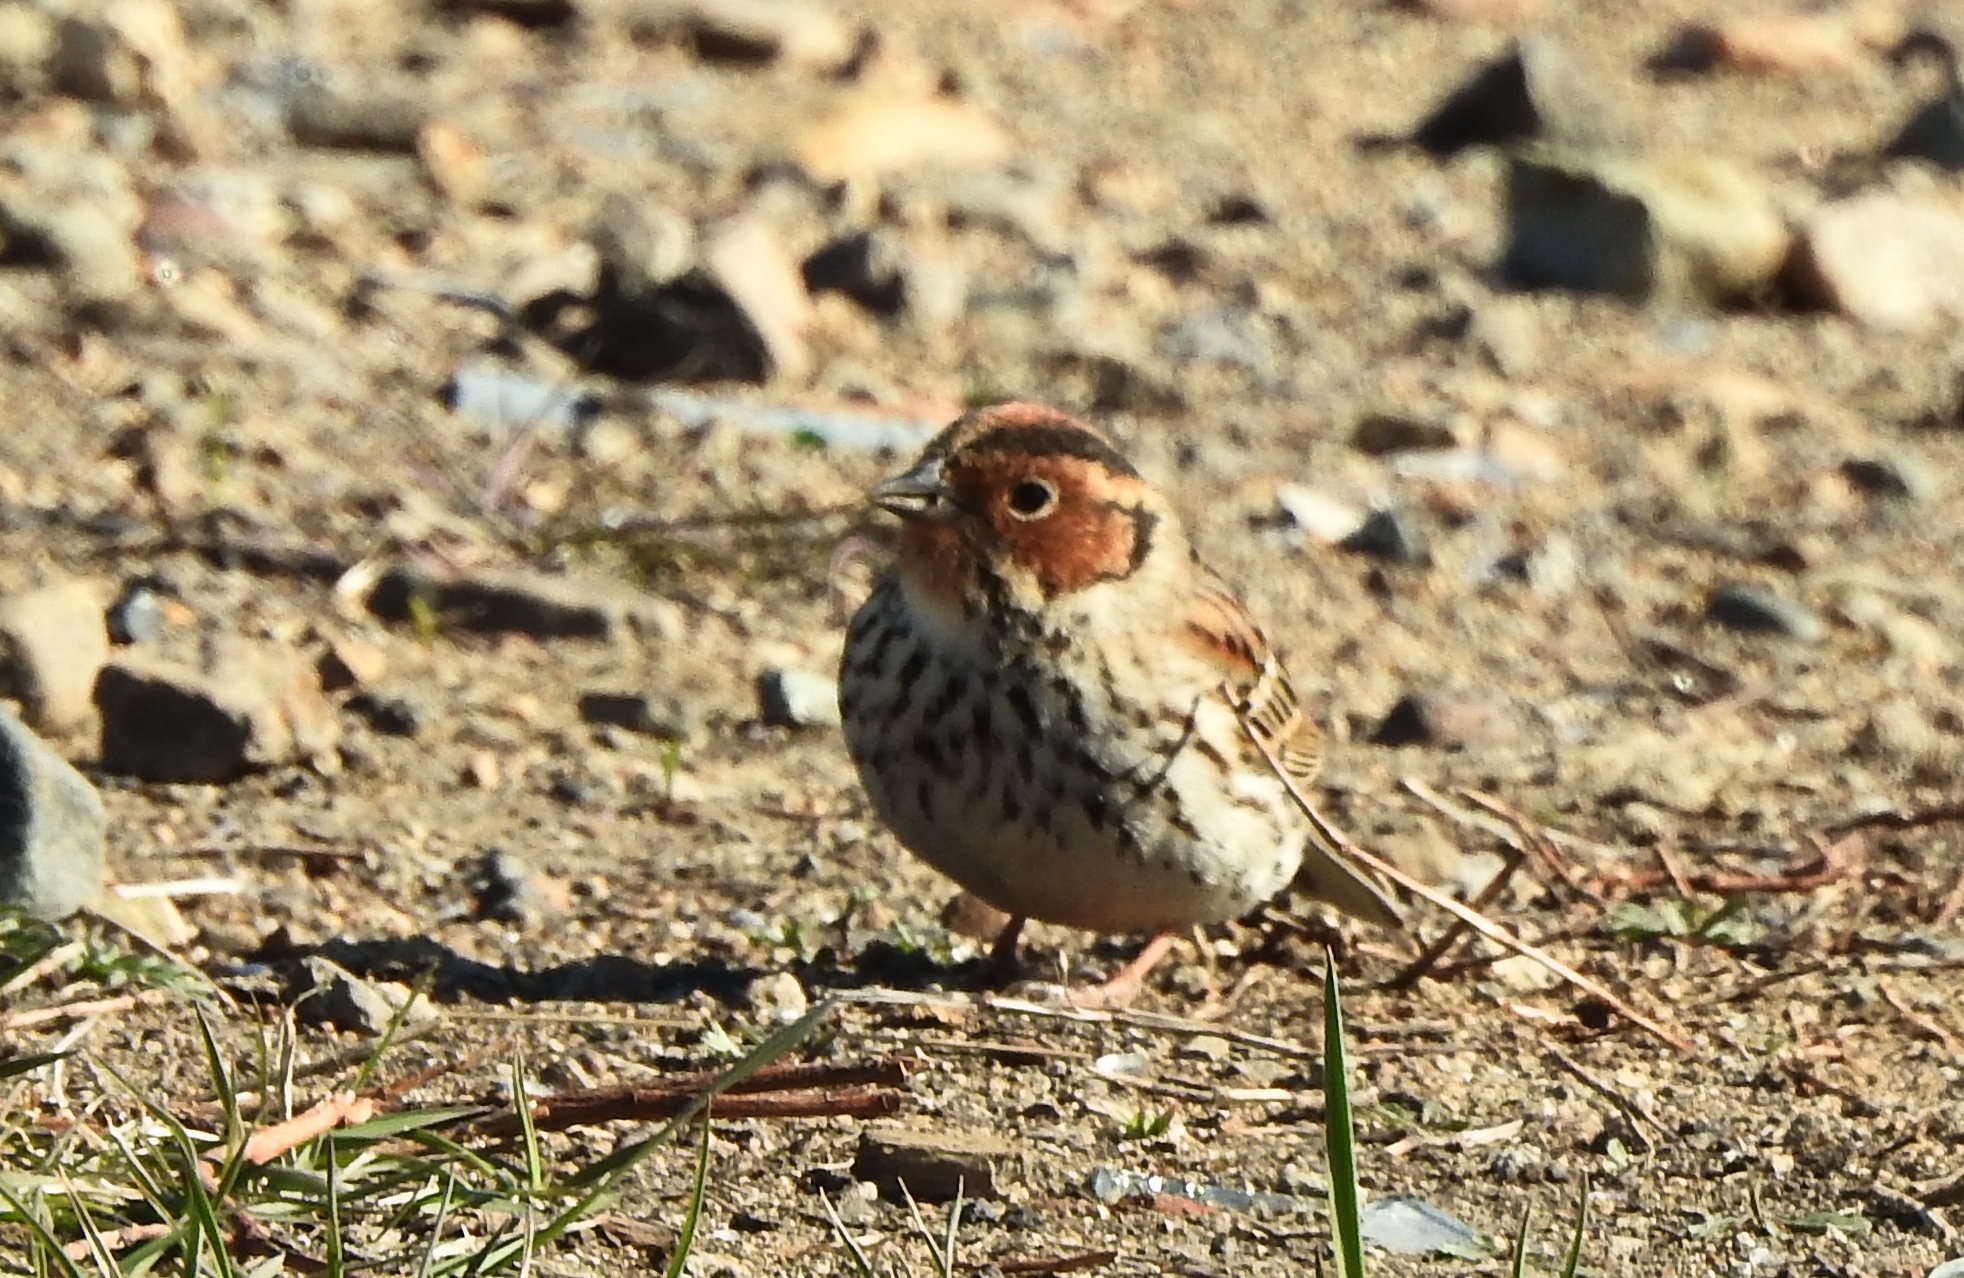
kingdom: Animalia
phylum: Chordata
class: Aves
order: Passeriformes
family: Emberizidae
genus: Emberiza
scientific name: Emberiza pusilla
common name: Little bunting
